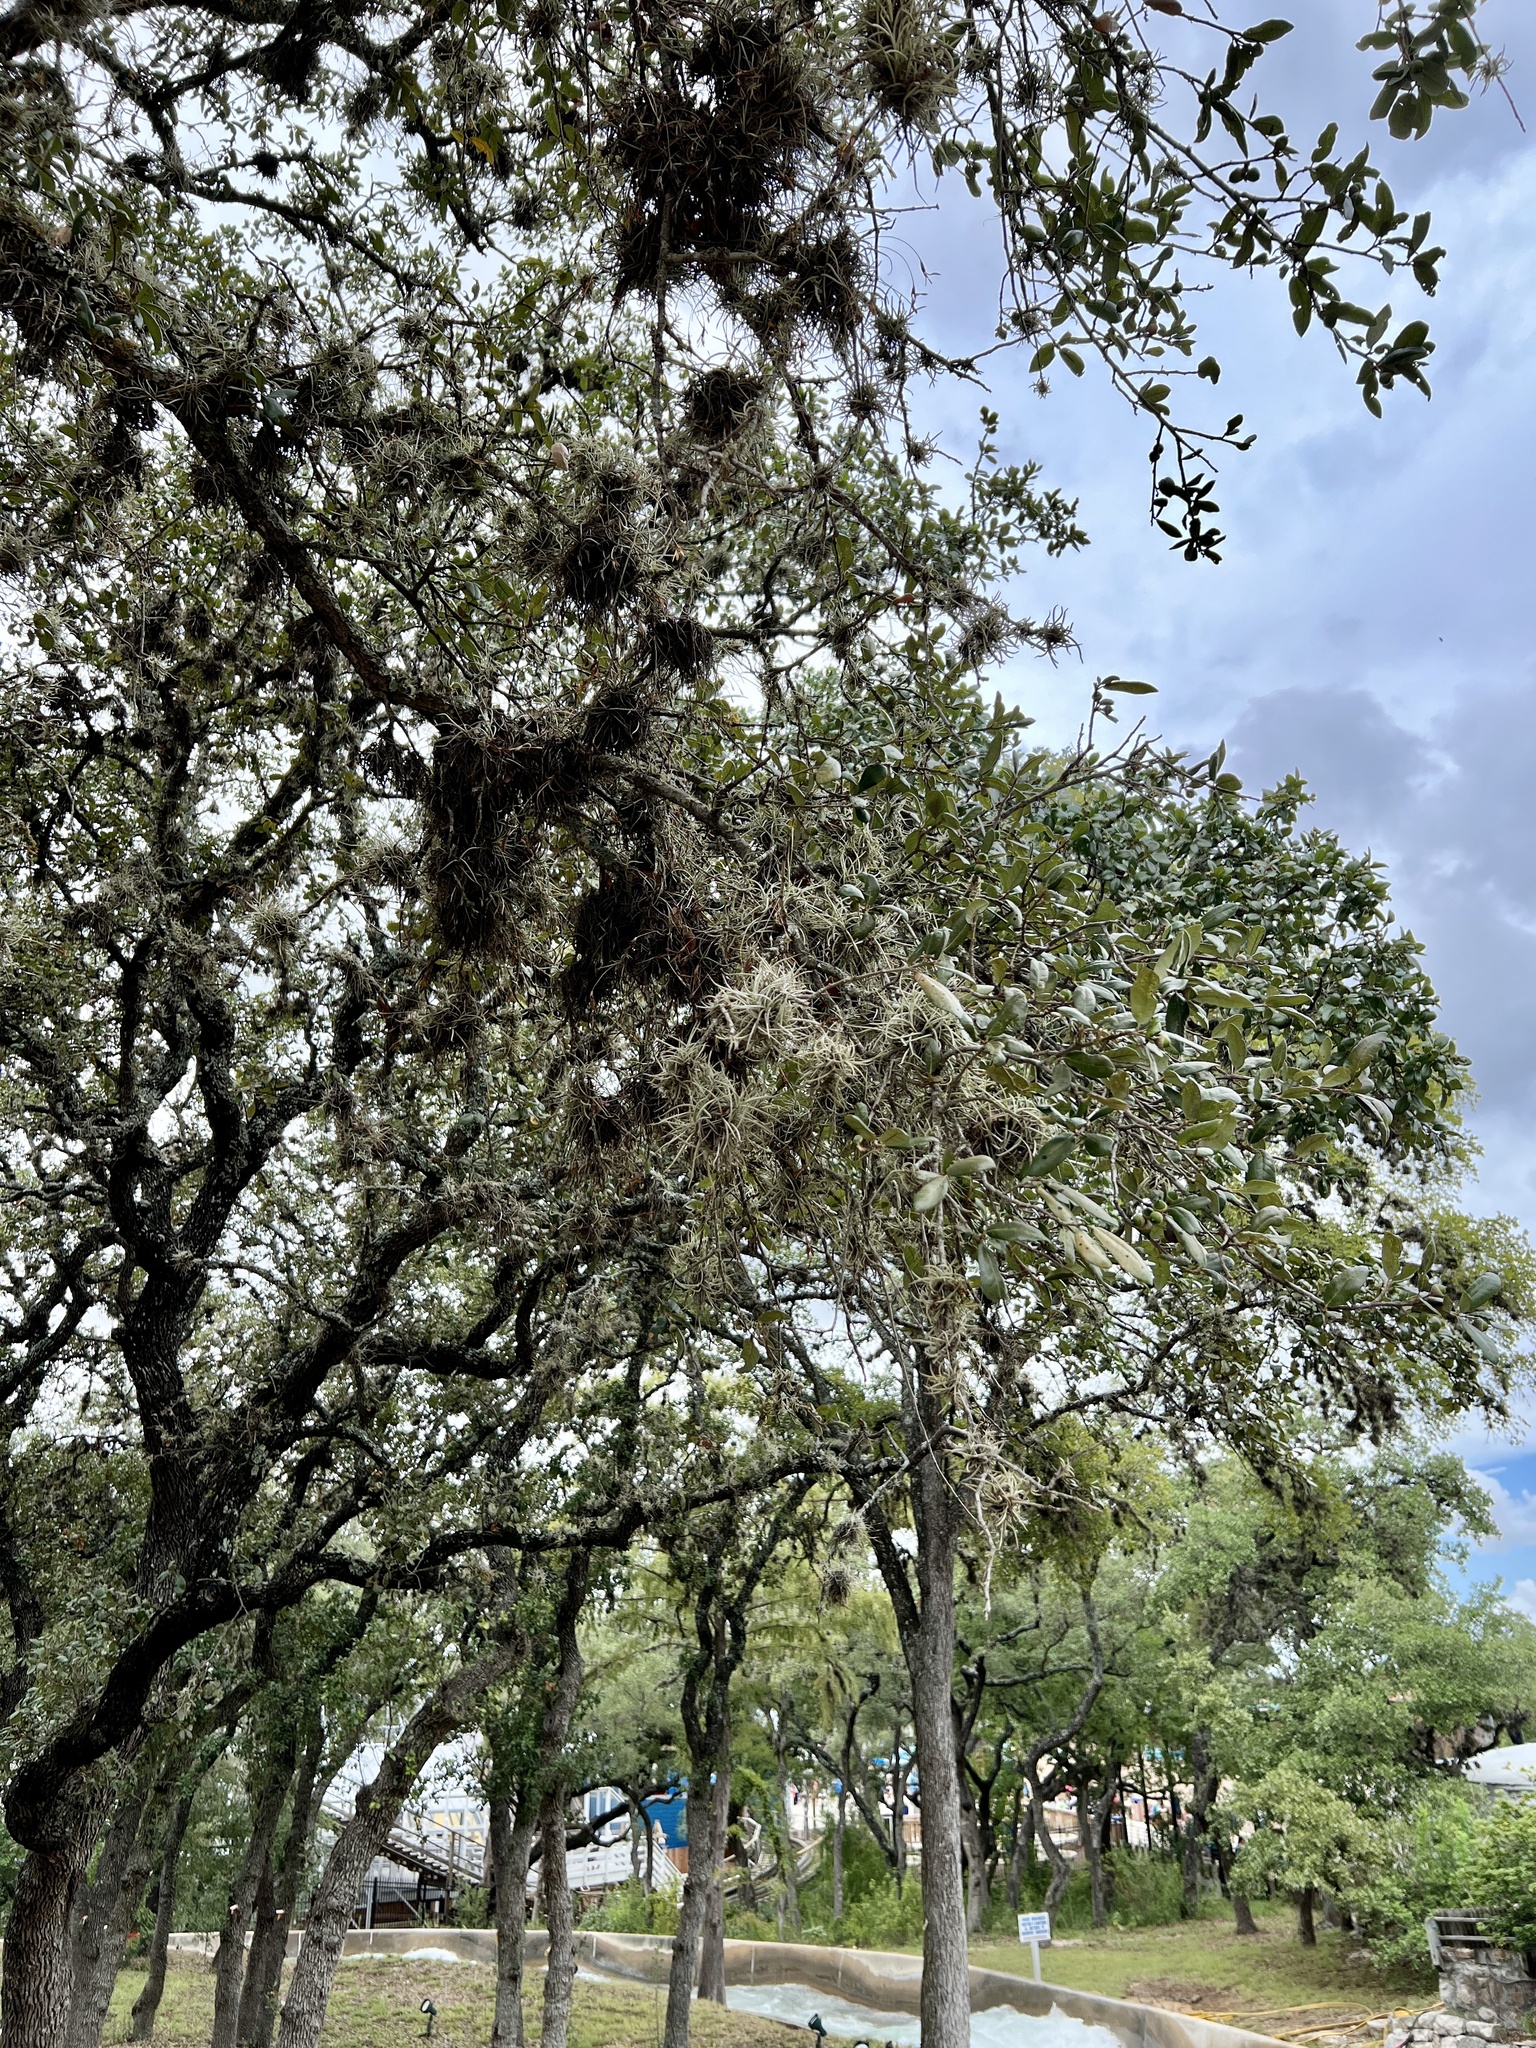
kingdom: Plantae
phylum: Tracheophyta
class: Liliopsida
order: Poales
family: Bromeliaceae
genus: Tillandsia
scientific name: Tillandsia recurvata
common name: Small ballmoss
